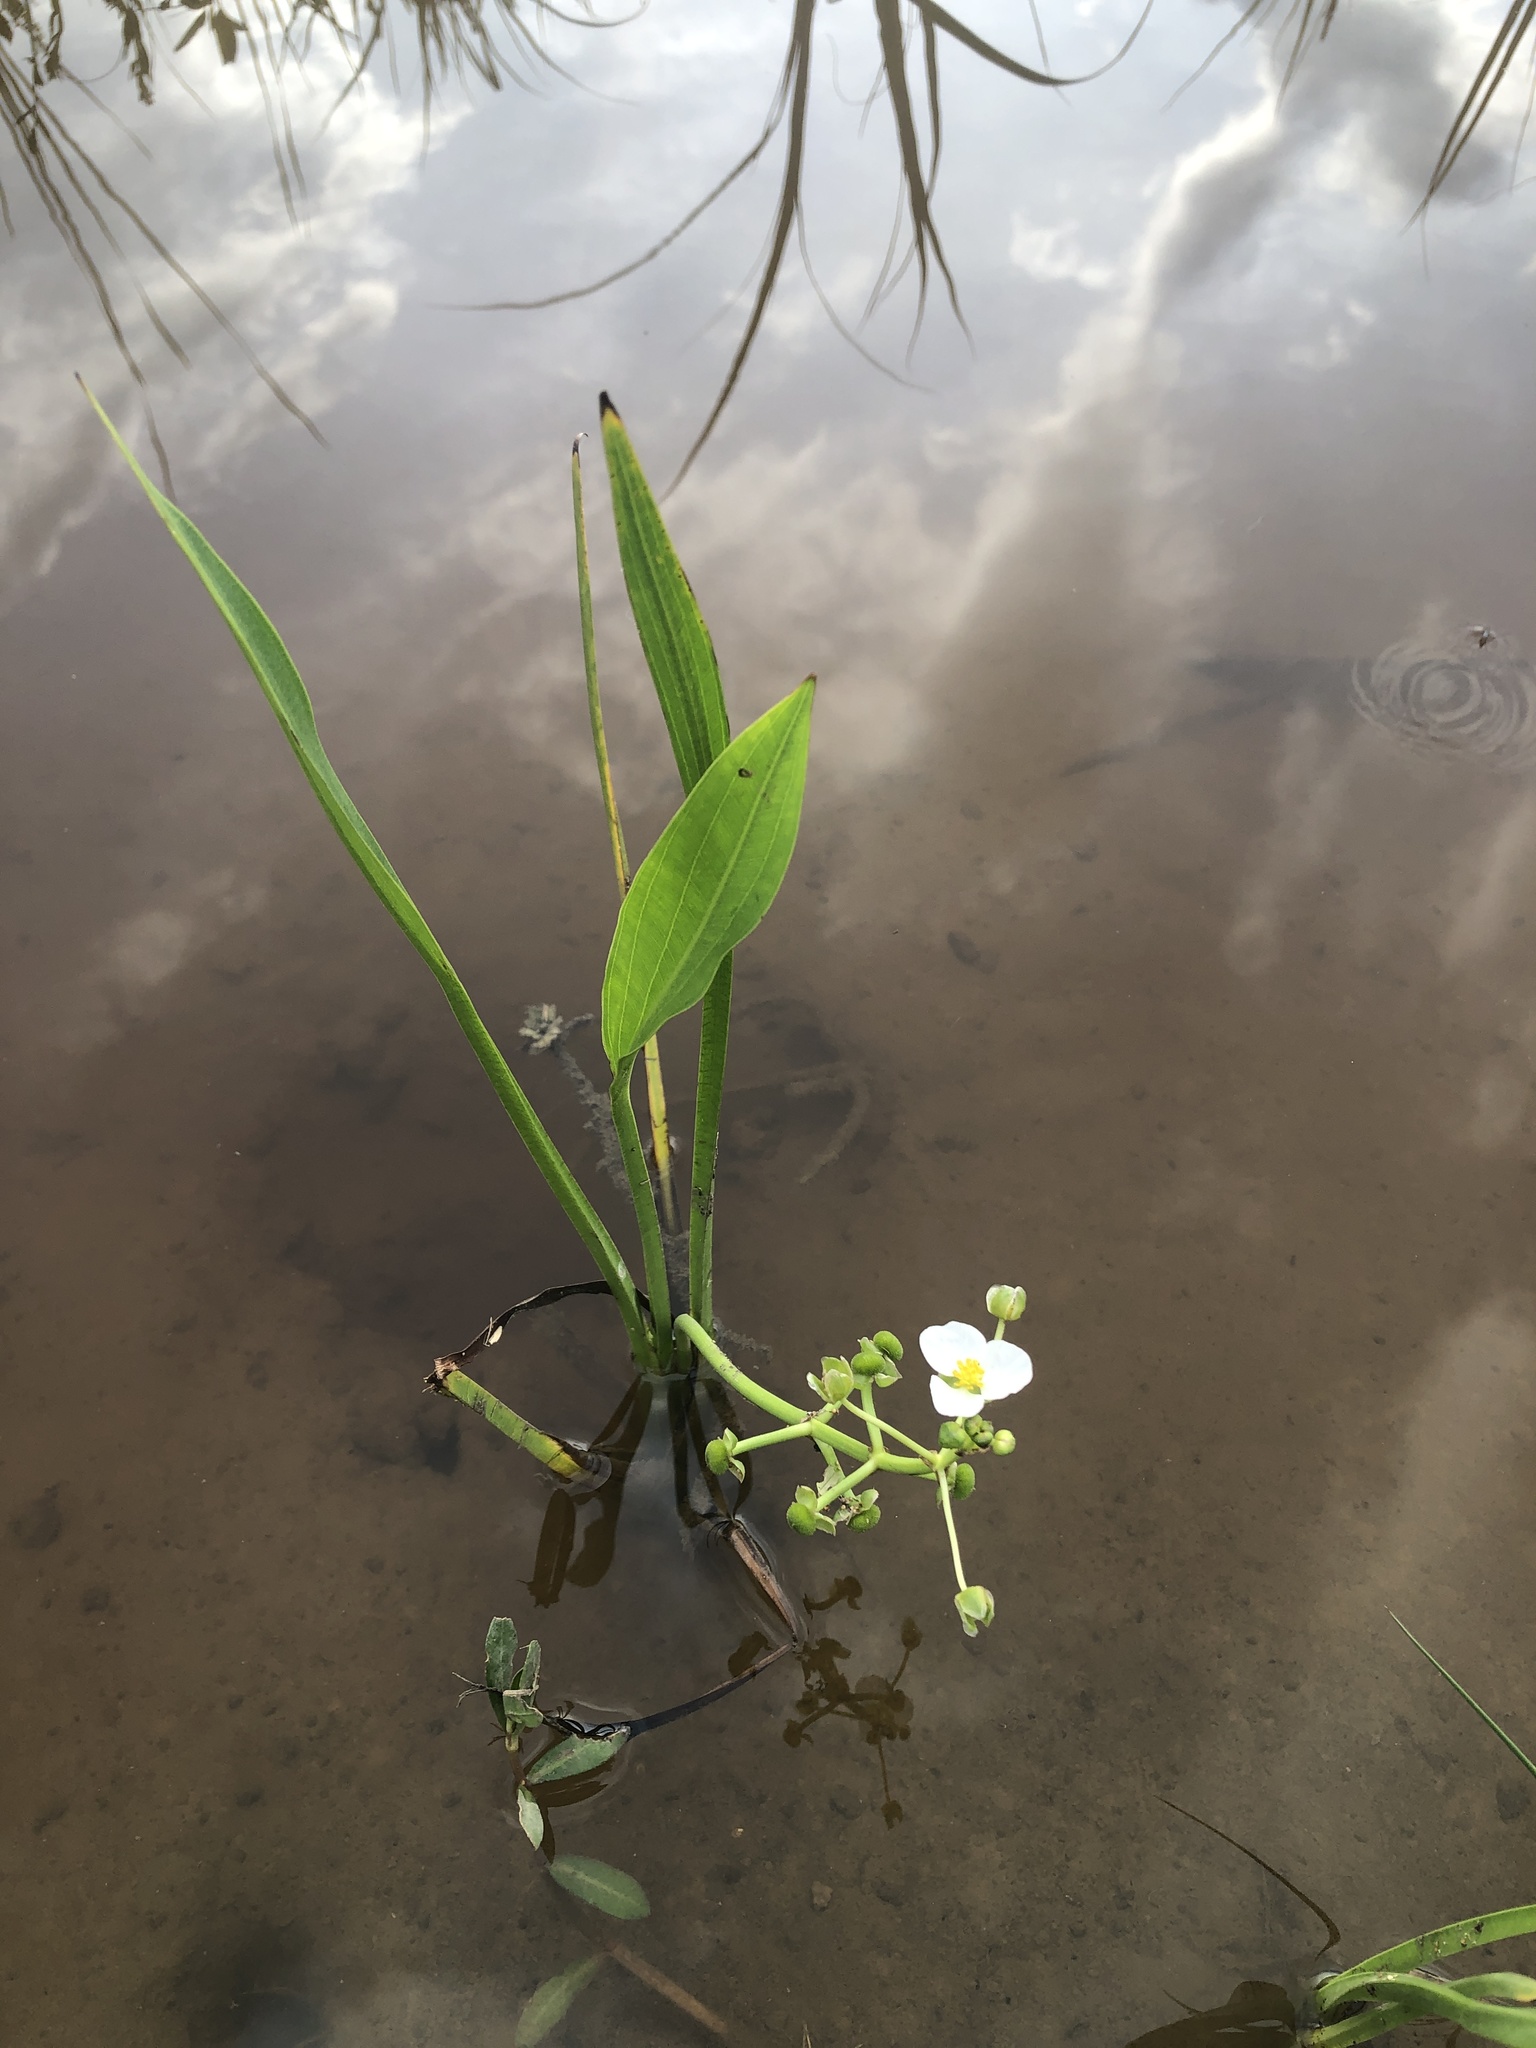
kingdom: Plantae
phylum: Tracheophyta
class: Liliopsida
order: Alismatales
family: Alismataceae
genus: Sagittaria
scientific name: Sagittaria platyphylla
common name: Broad-leaf arrowhead
